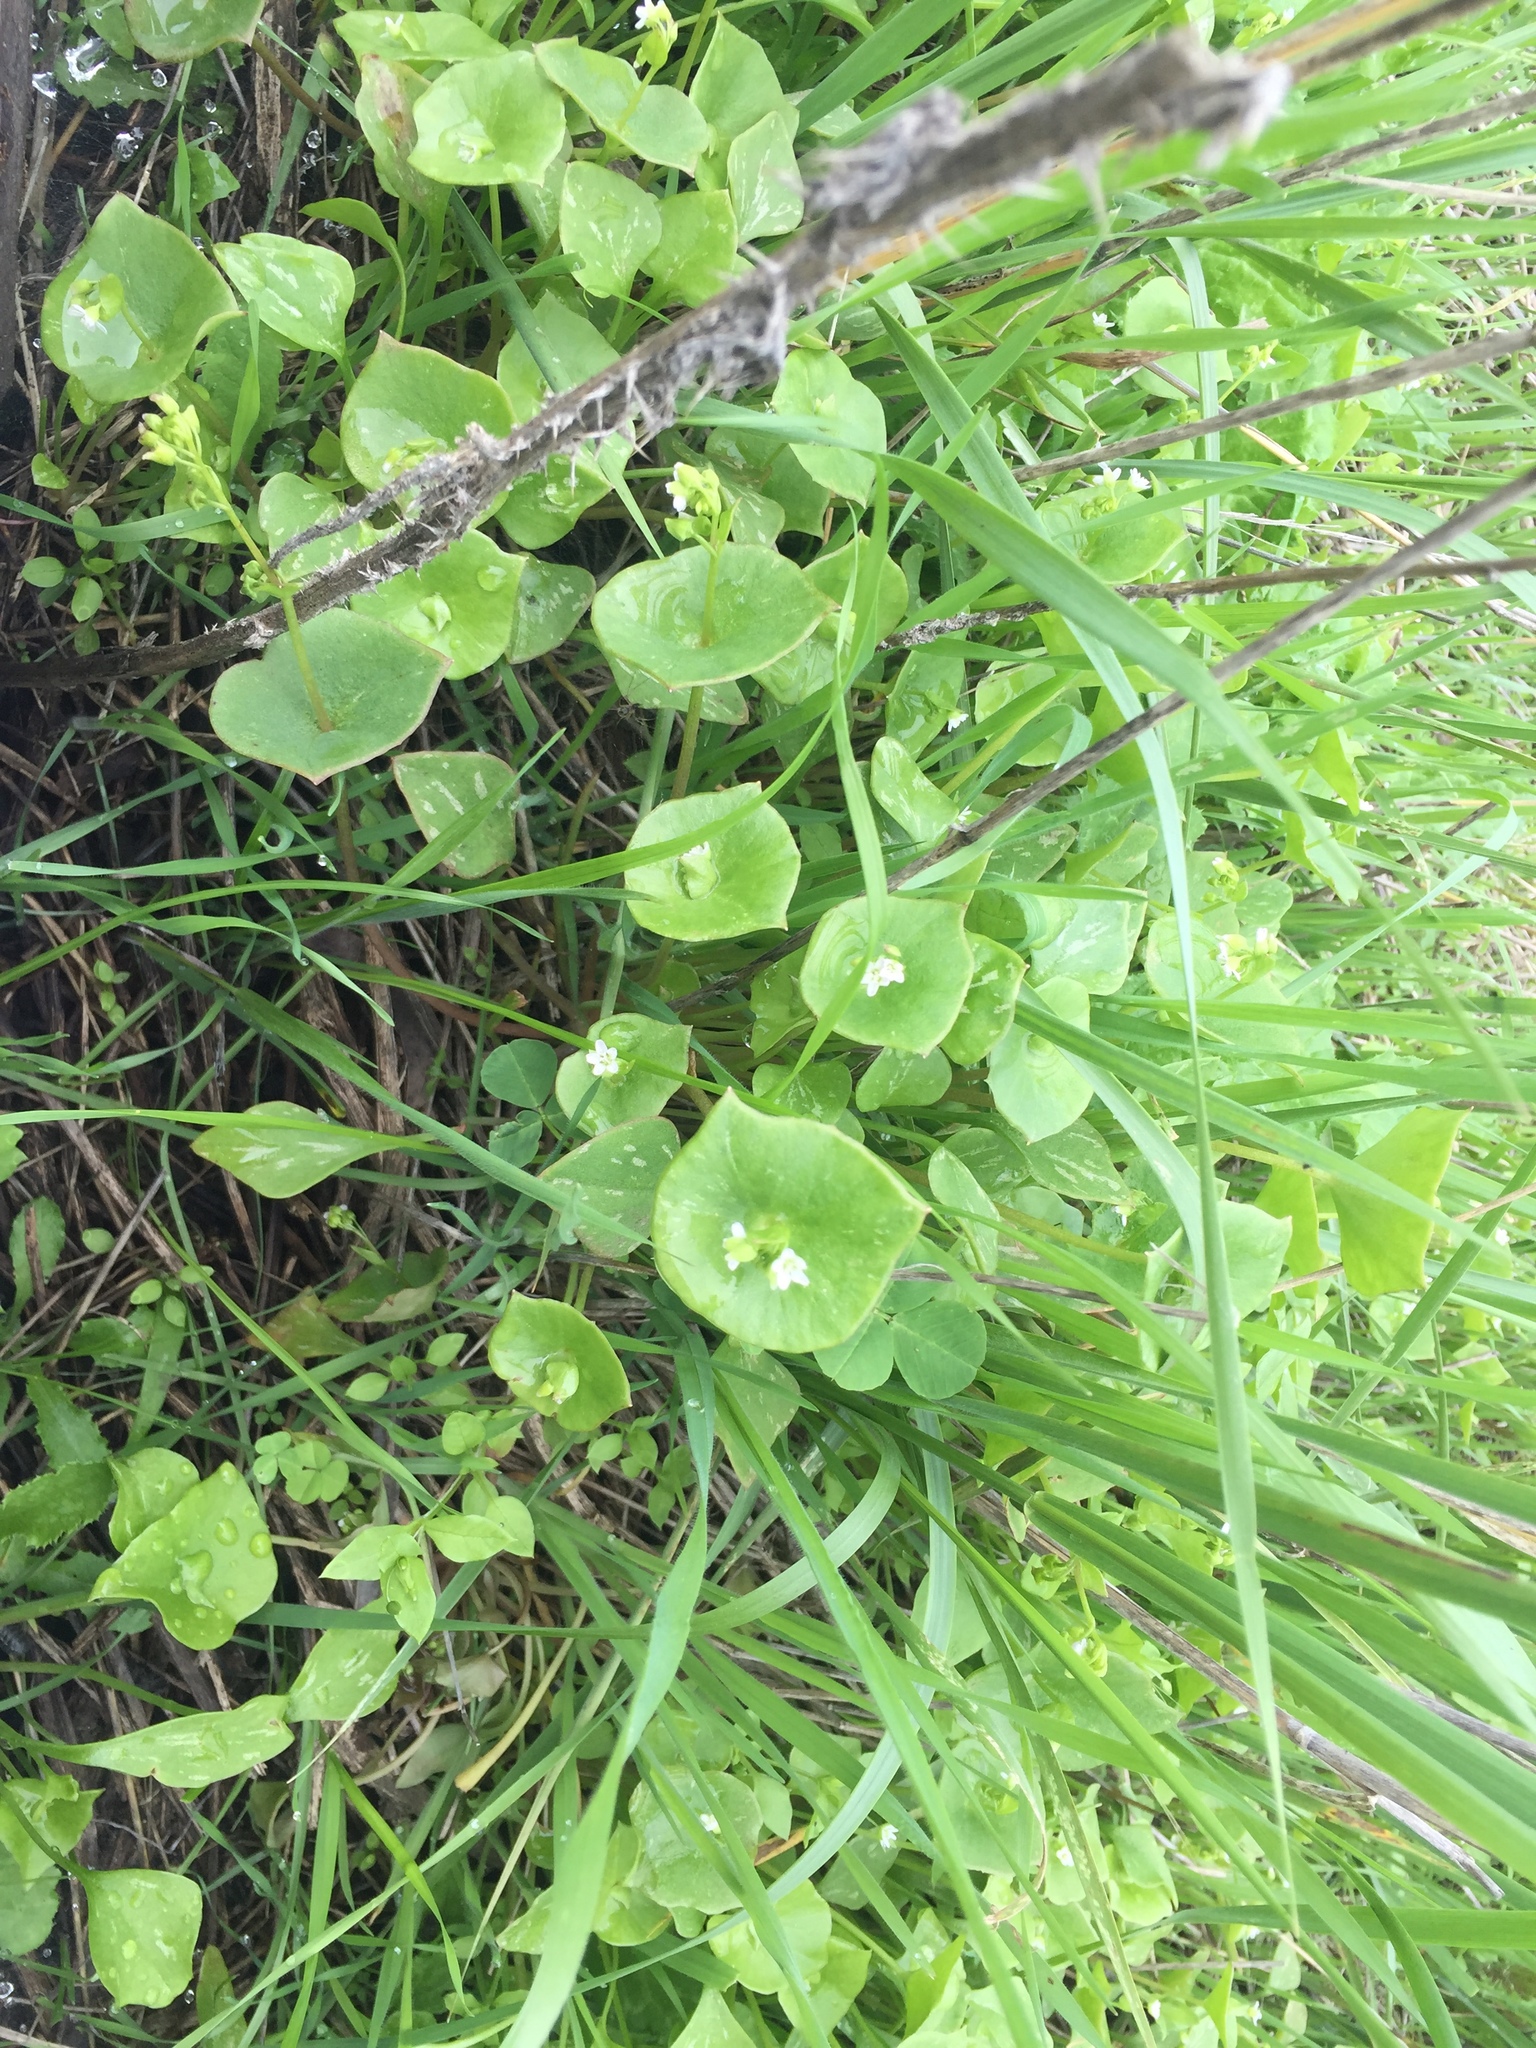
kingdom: Plantae
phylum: Tracheophyta
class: Magnoliopsida
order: Caryophyllales
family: Montiaceae
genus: Claytonia
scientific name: Claytonia perfoliata
